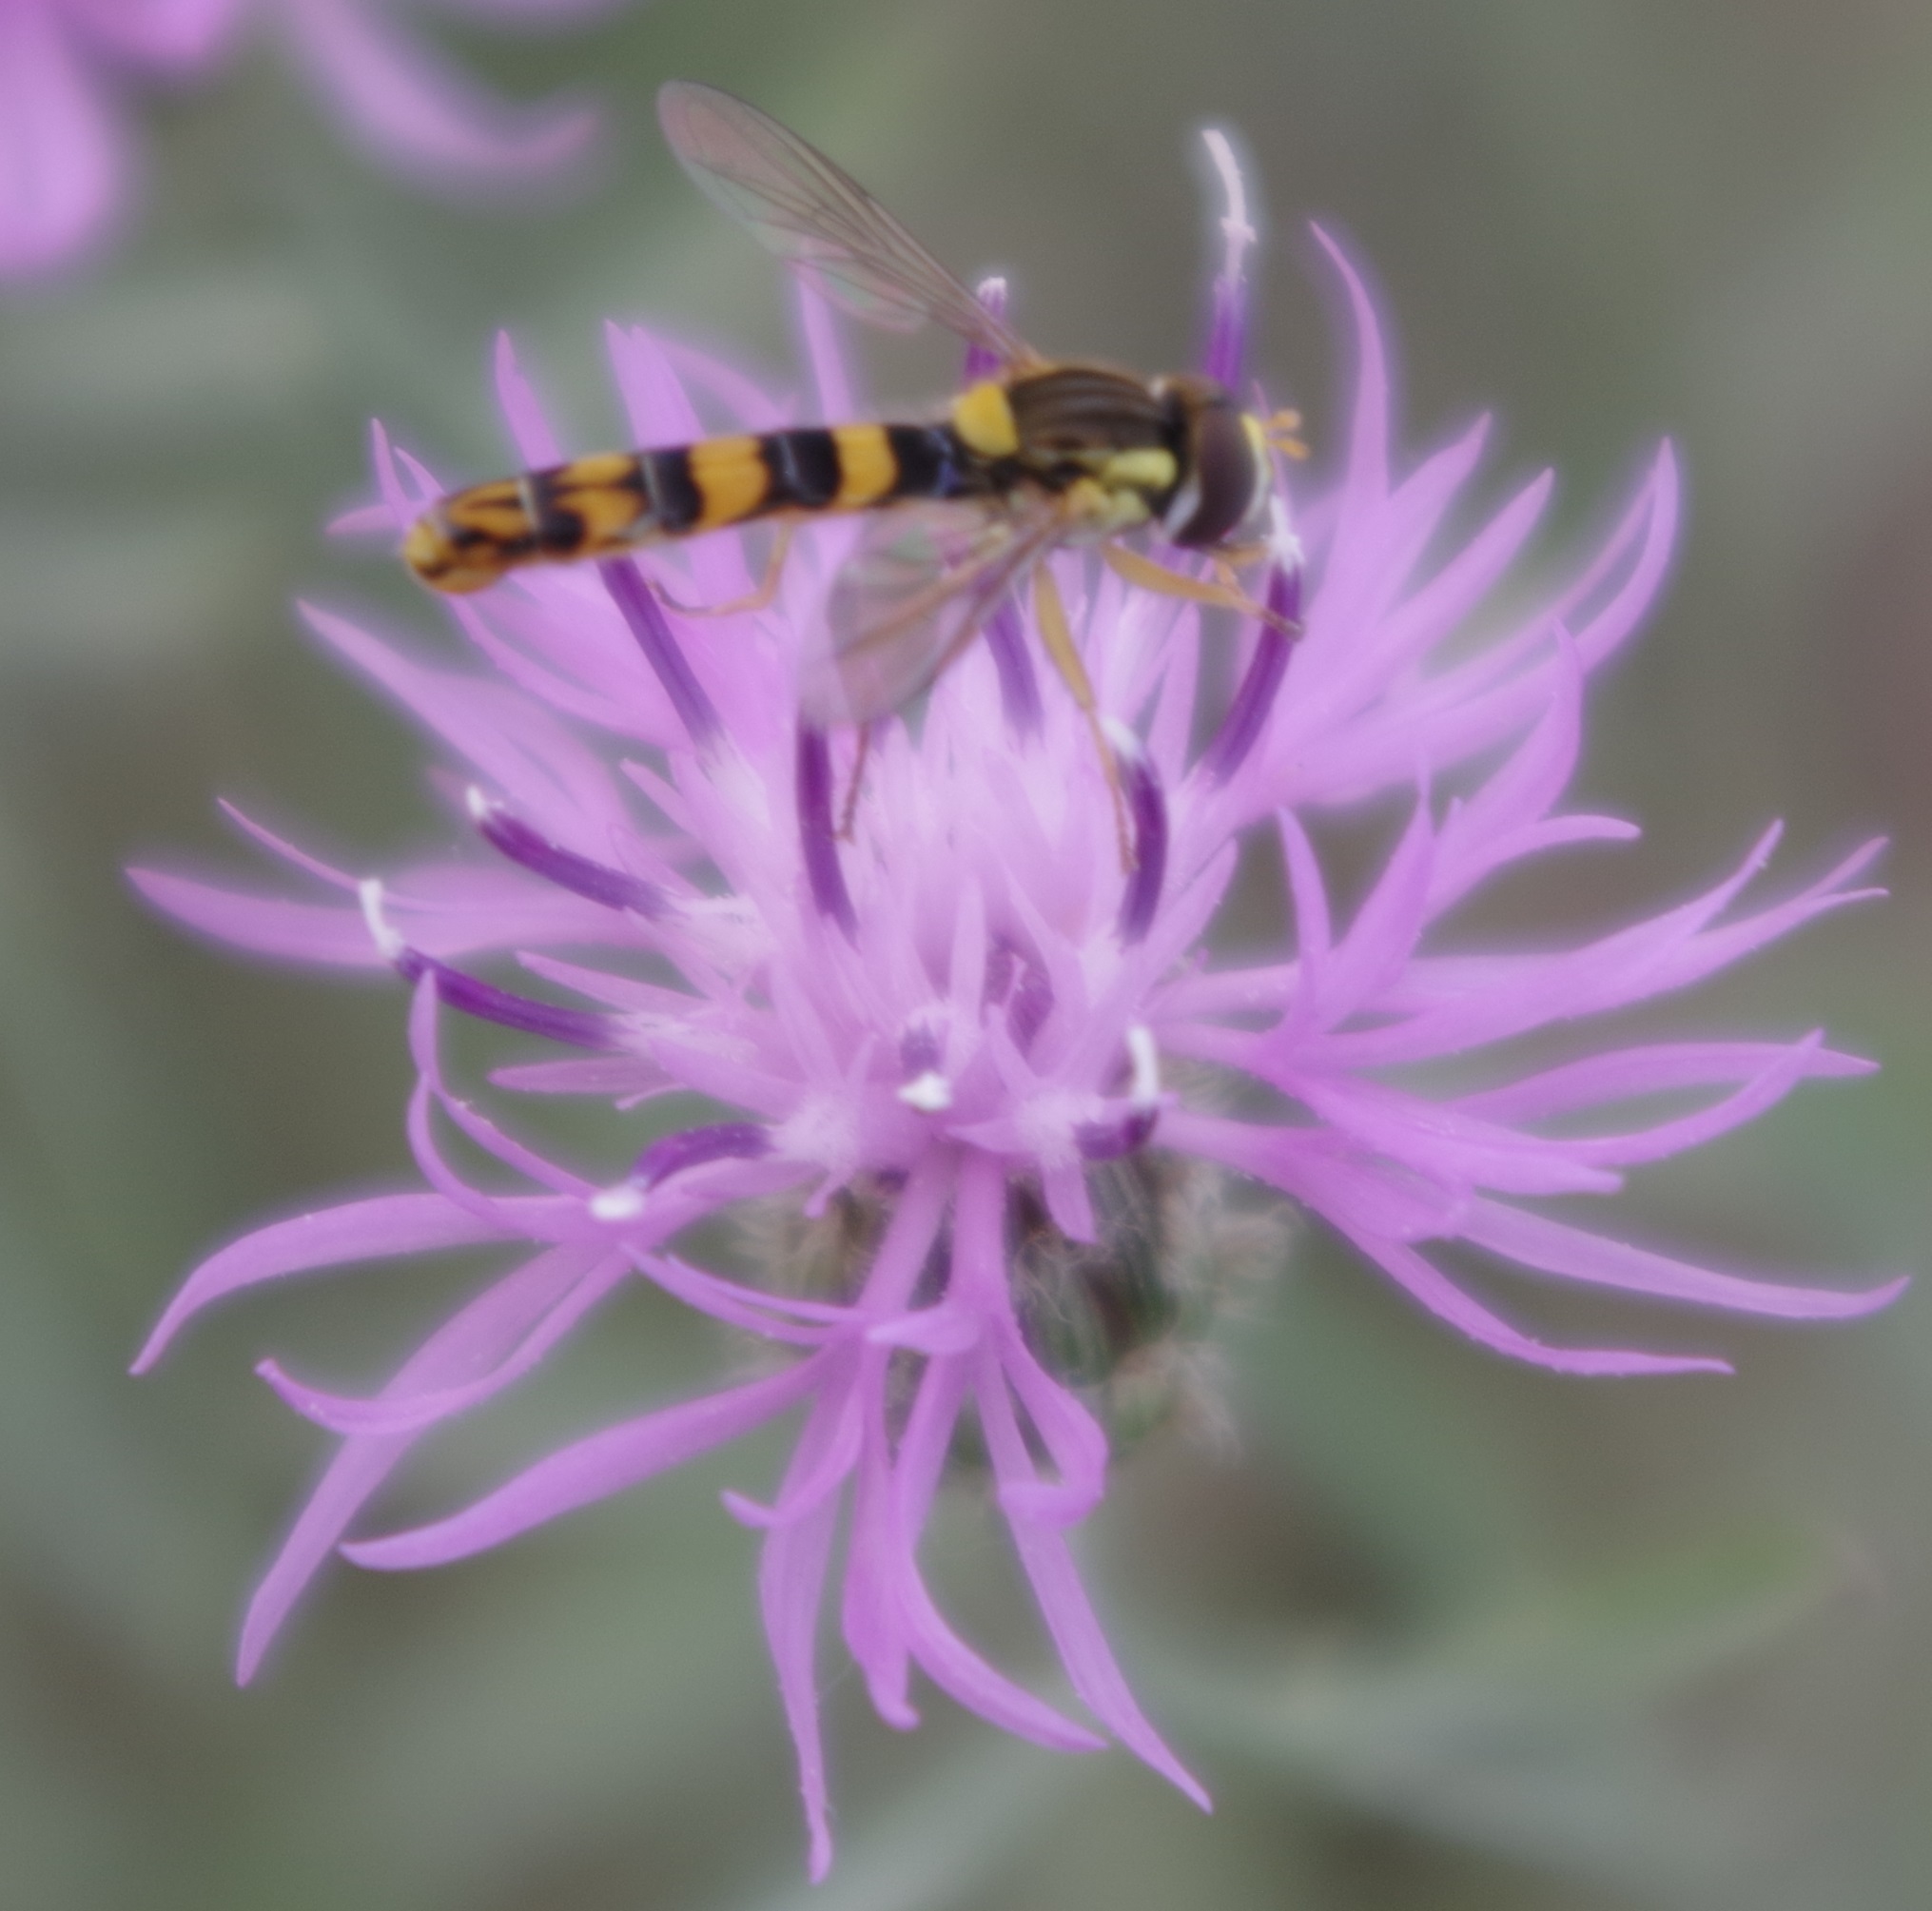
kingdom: Animalia
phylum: Arthropoda
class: Insecta
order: Diptera
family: Syrphidae
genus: Sphaerophoria
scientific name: Sphaerophoria scripta
